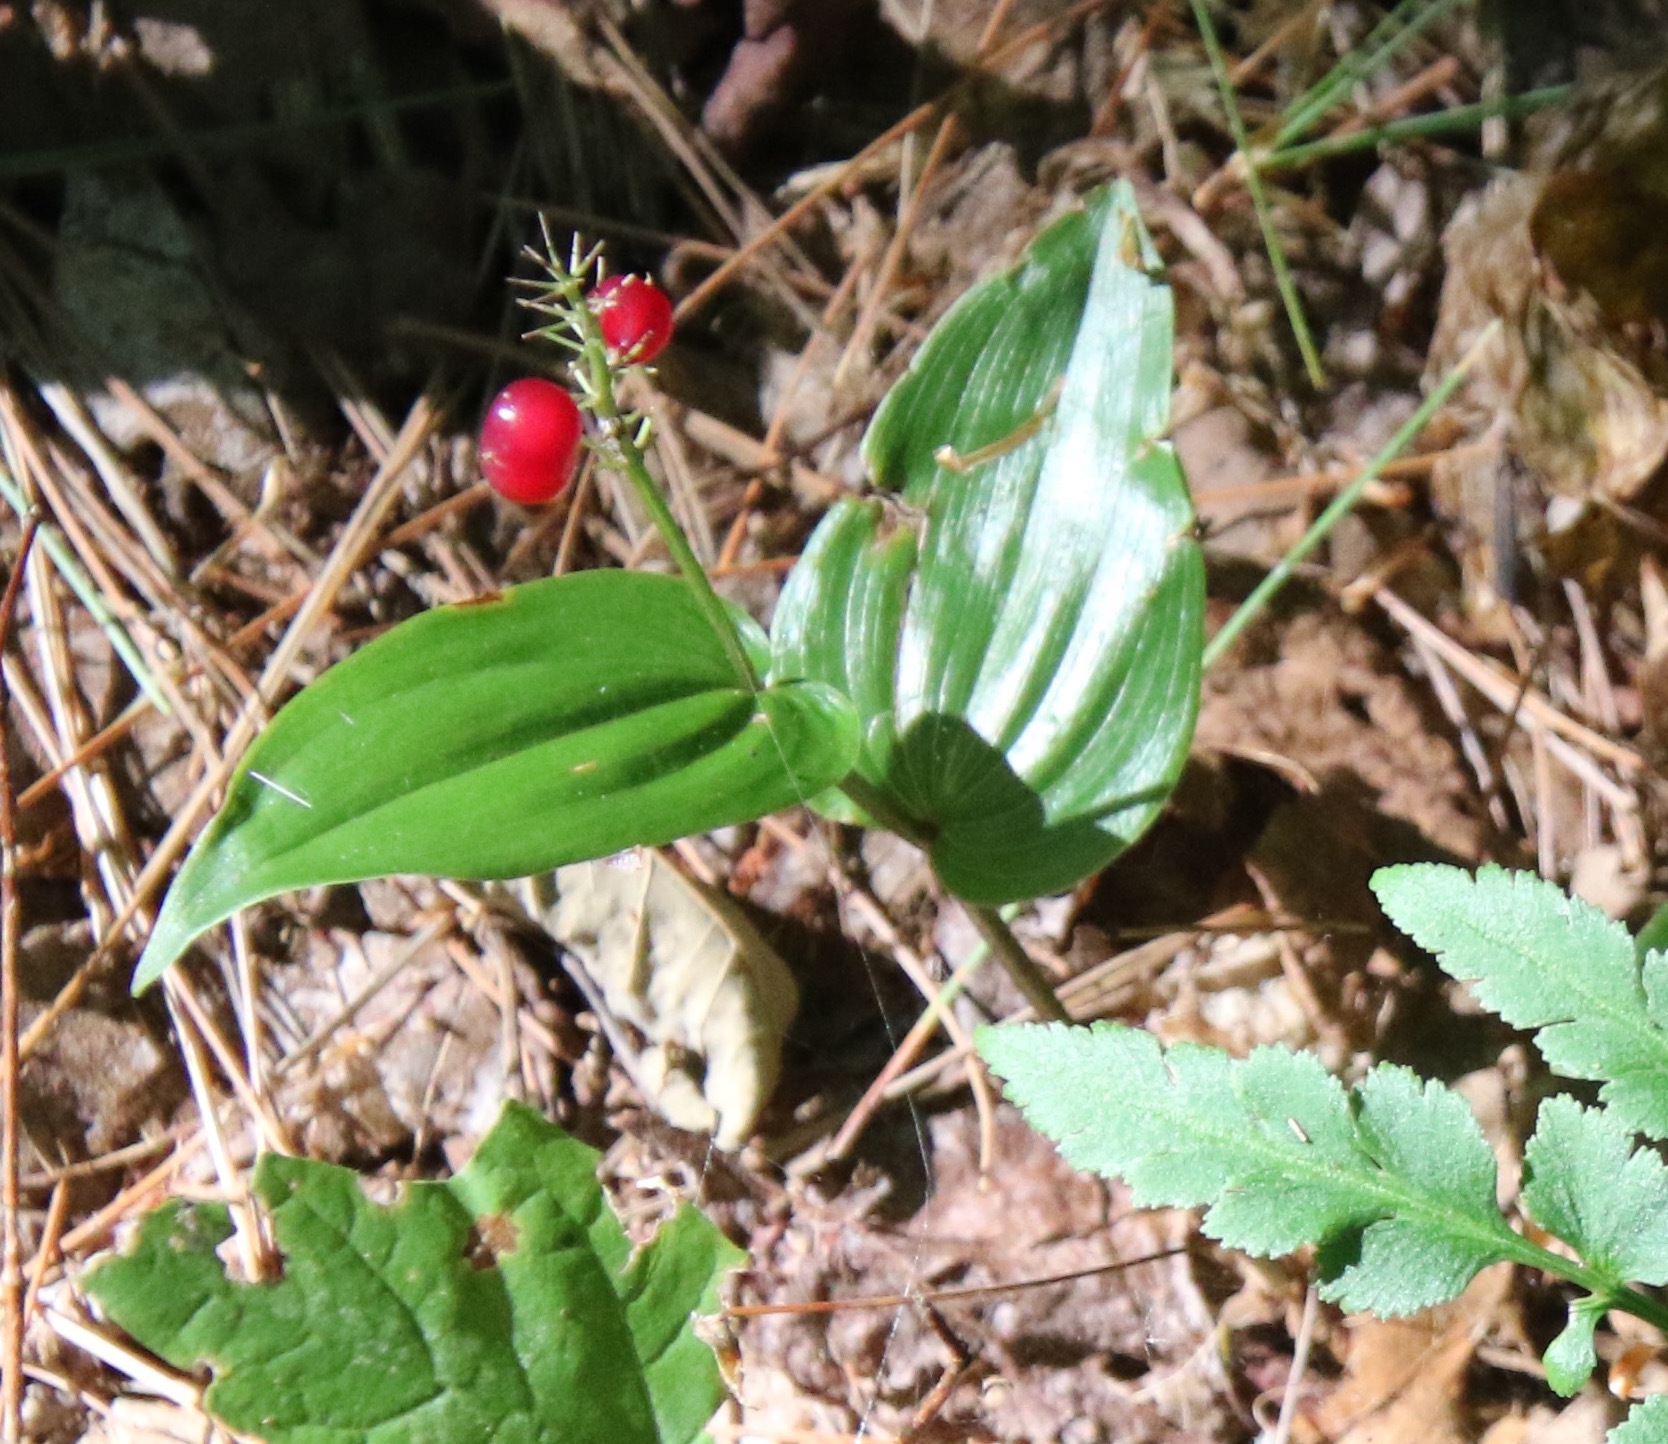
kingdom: Plantae
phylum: Tracheophyta
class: Liliopsida
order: Asparagales
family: Asparagaceae
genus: Maianthemum
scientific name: Maianthemum canadense
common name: False lily-of-the-valley
